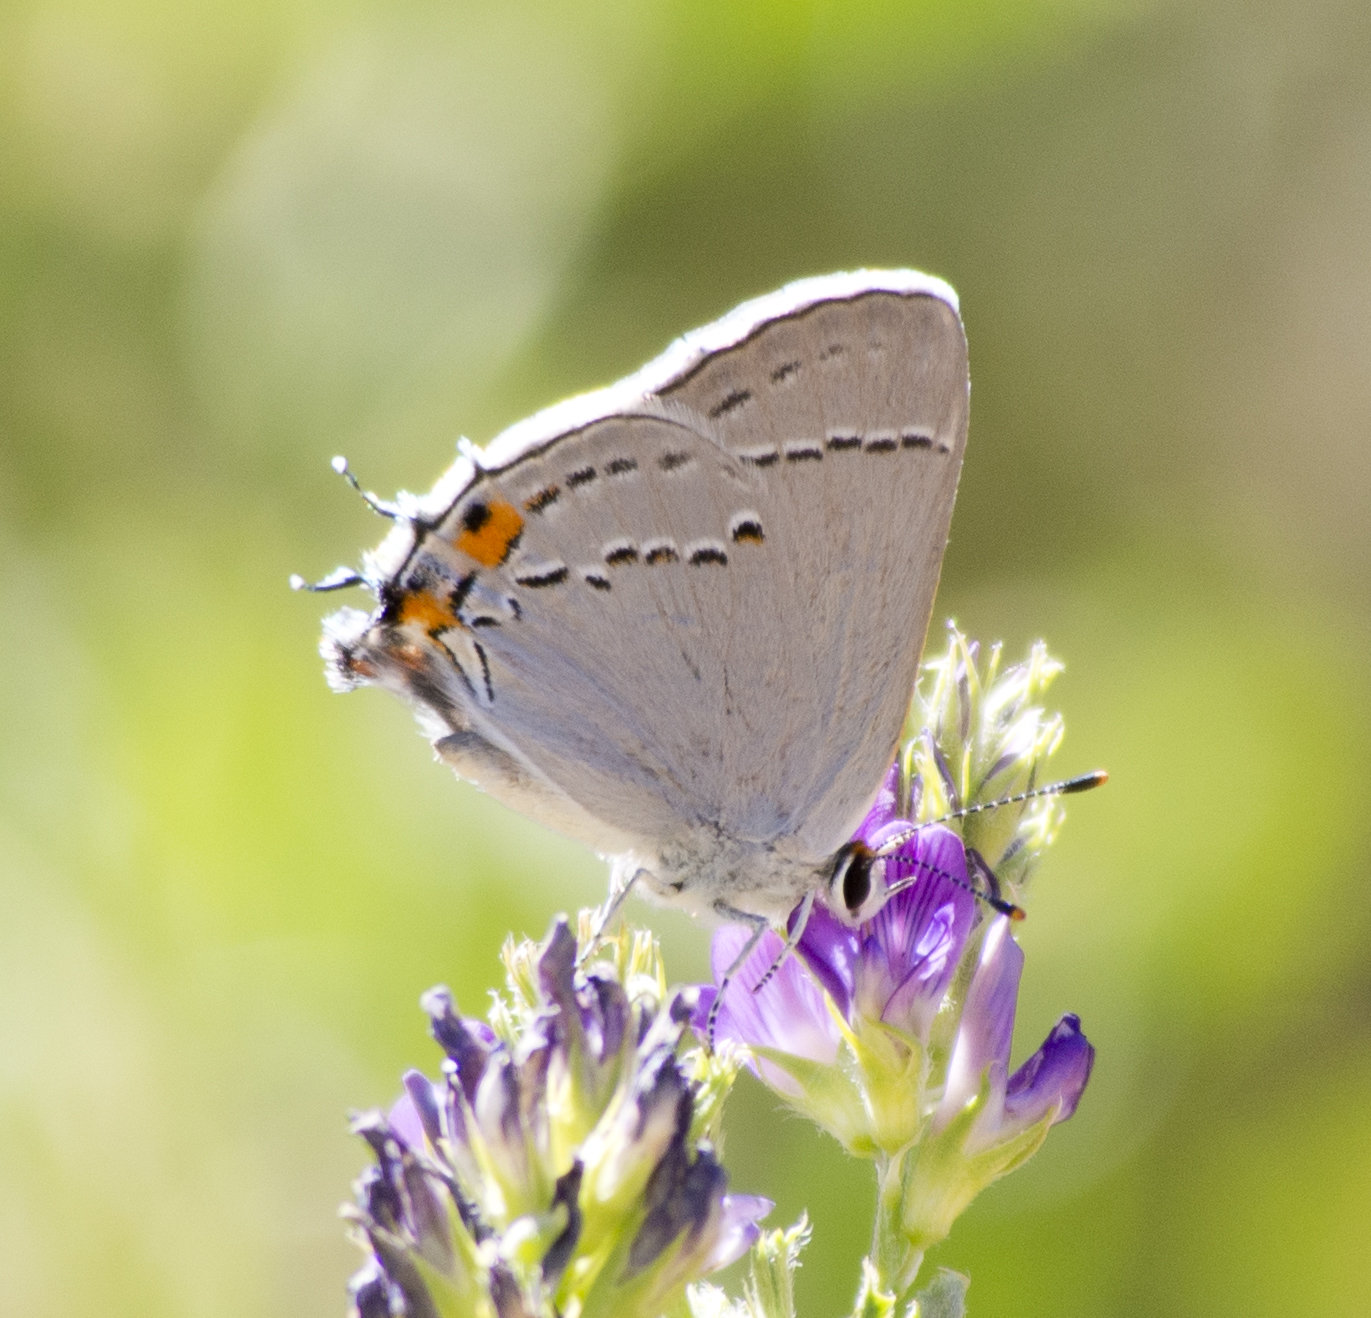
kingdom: Animalia
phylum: Arthropoda
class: Insecta
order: Lepidoptera
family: Lycaenidae
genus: Strymon
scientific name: Strymon melinus
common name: Gray hairstreak
